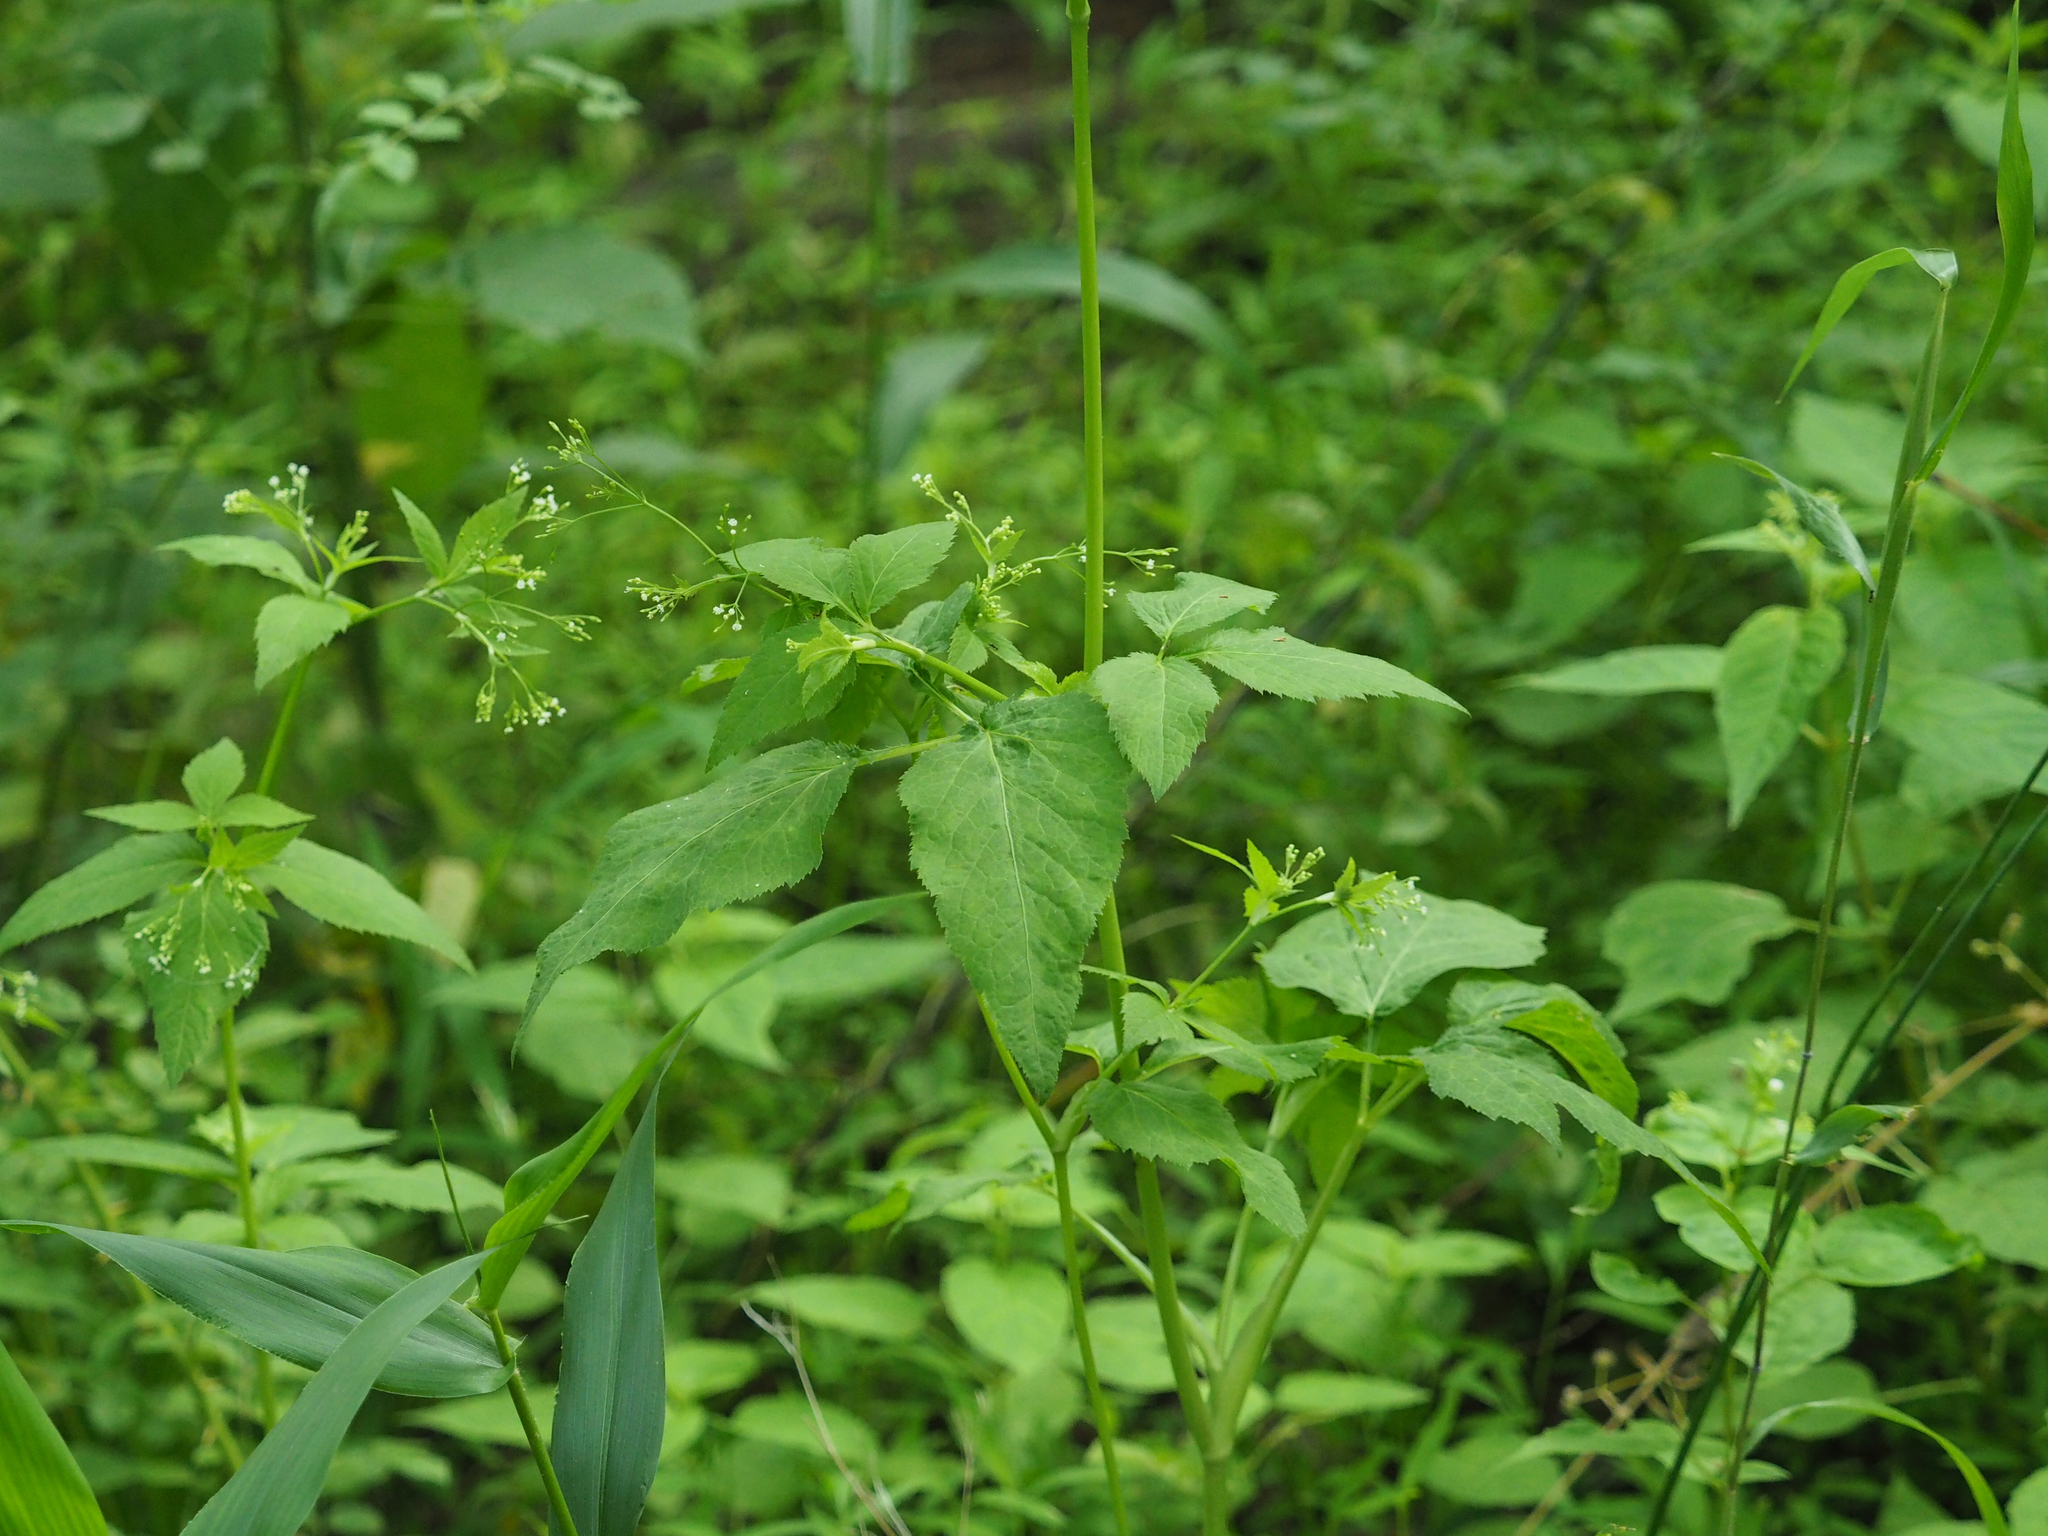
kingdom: Plantae
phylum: Tracheophyta
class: Magnoliopsida
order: Apiales
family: Apiaceae
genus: Cryptotaenia
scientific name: Cryptotaenia canadensis
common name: Honewort
